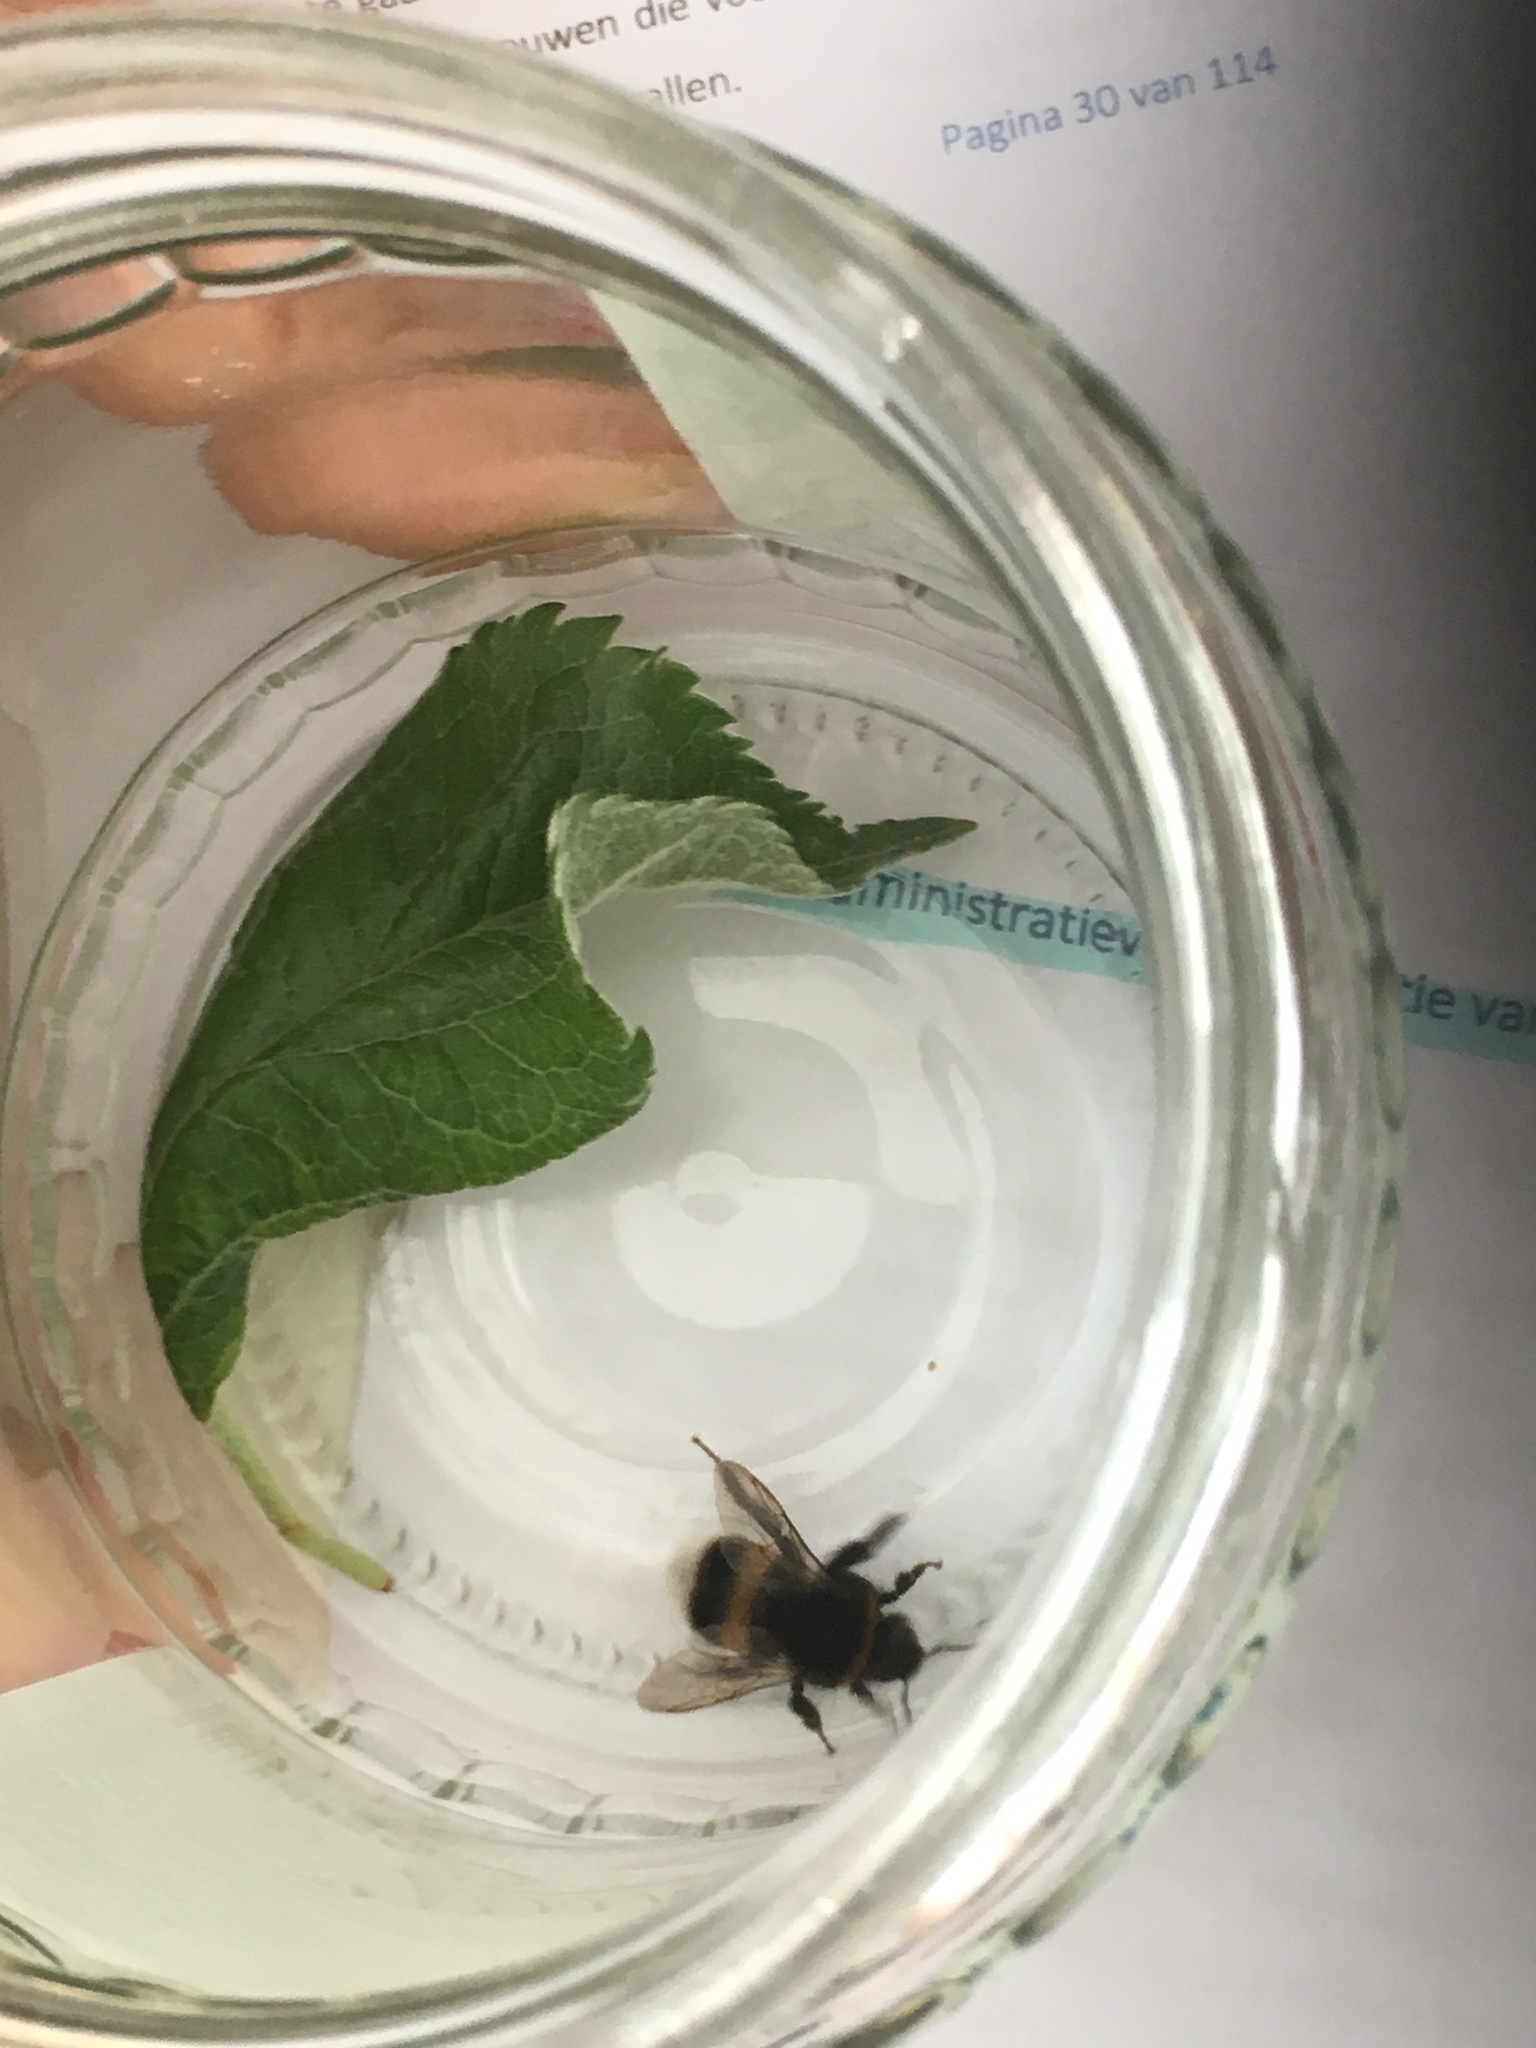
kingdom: Animalia
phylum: Arthropoda
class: Insecta
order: Hymenoptera
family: Apidae
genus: Bombus
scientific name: Bombus terrestris
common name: Buff-tailed bumblebee
